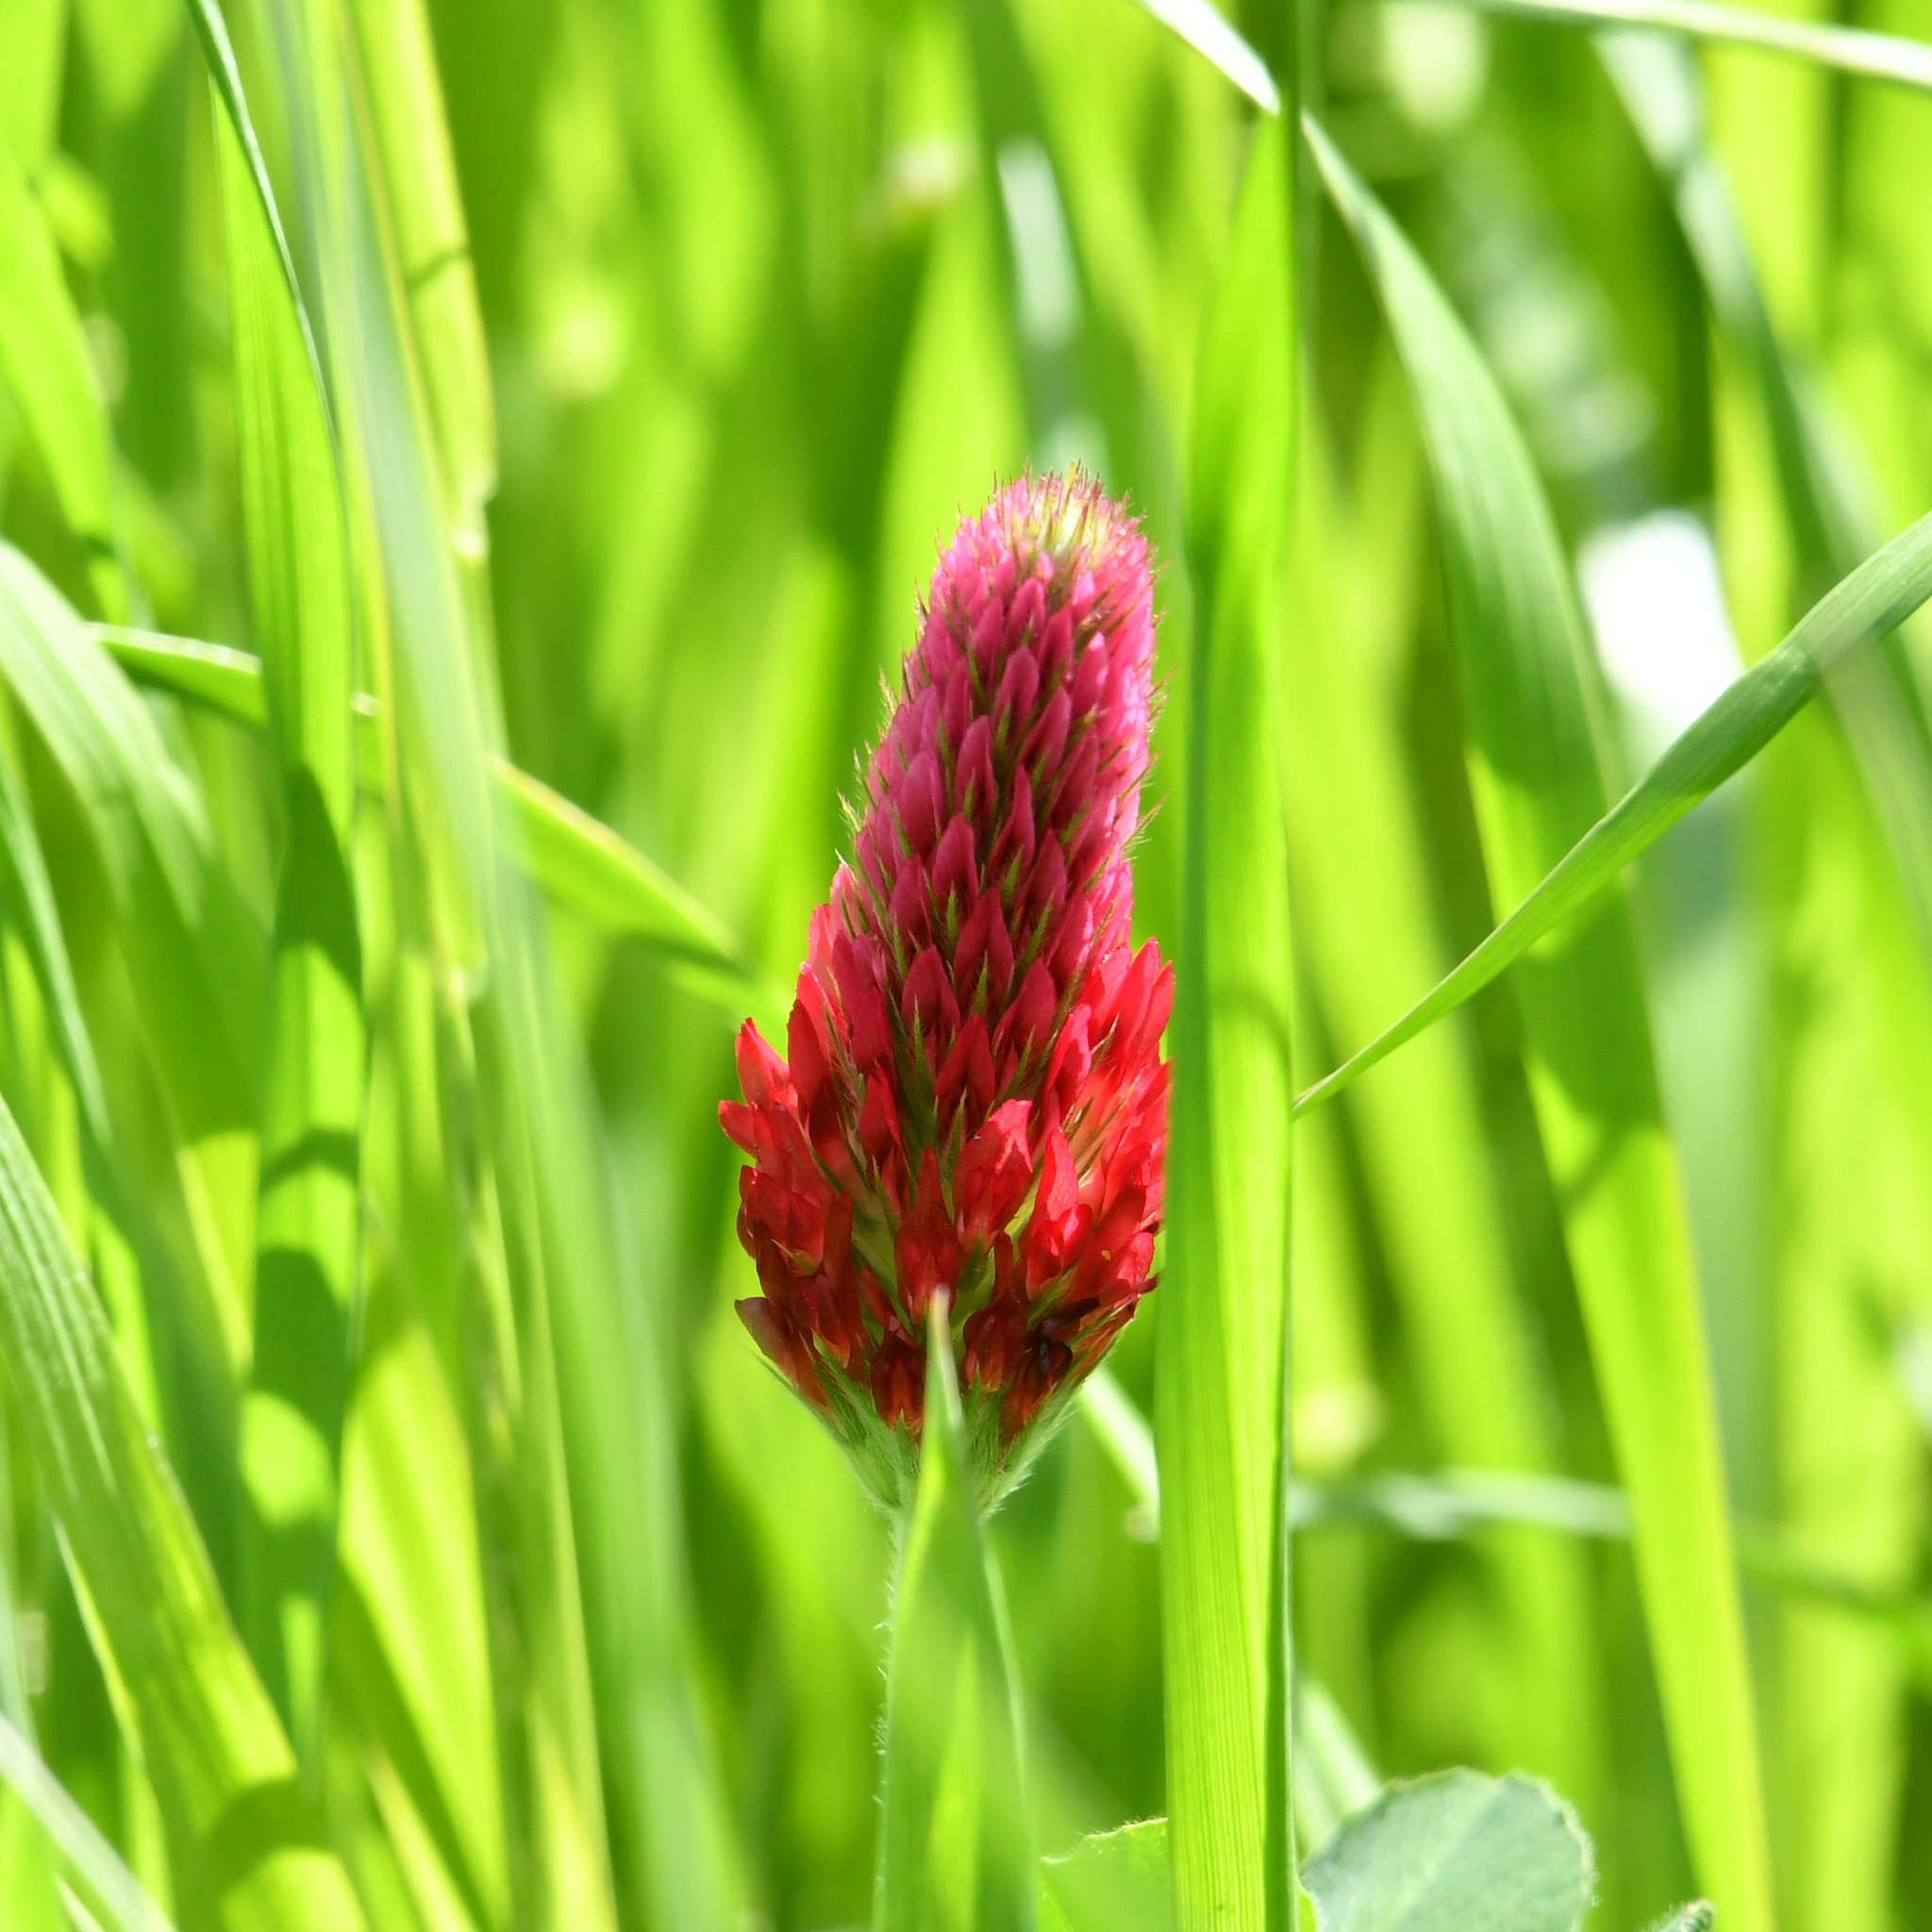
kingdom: Plantae
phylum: Tracheophyta
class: Magnoliopsida
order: Fabales
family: Fabaceae
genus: Trifolium
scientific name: Trifolium incarnatum
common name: Crimson clover
